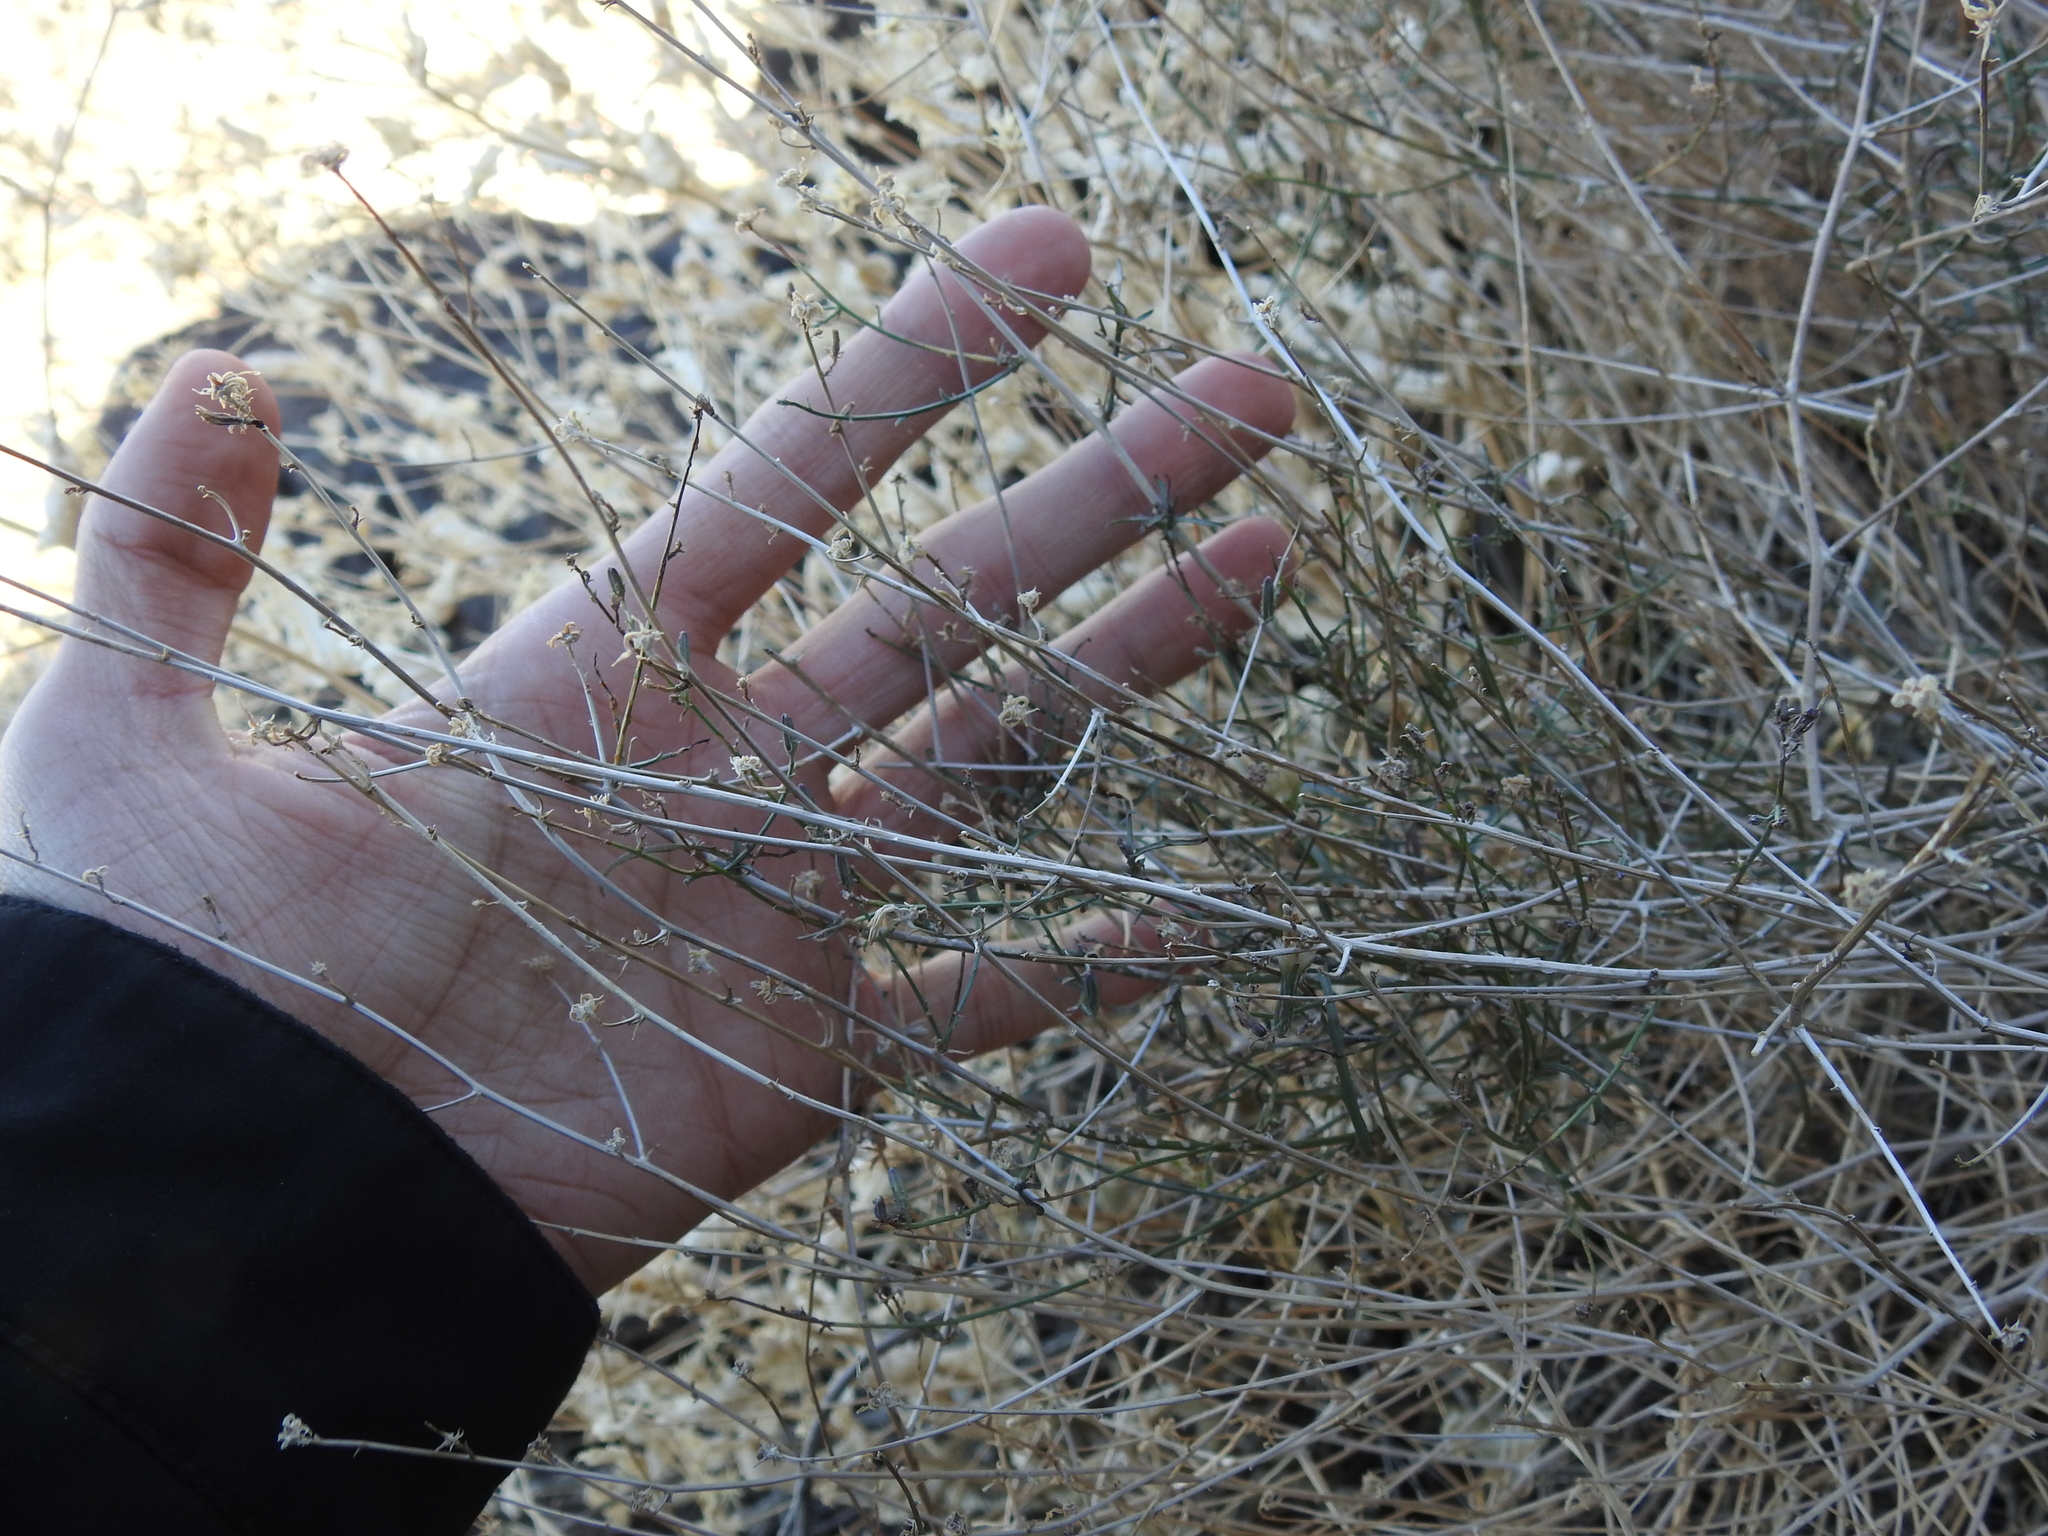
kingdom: Plantae
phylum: Tracheophyta
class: Magnoliopsida
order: Asterales
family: Asteraceae
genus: Stephanomeria
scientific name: Stephanomeria pauciflora
